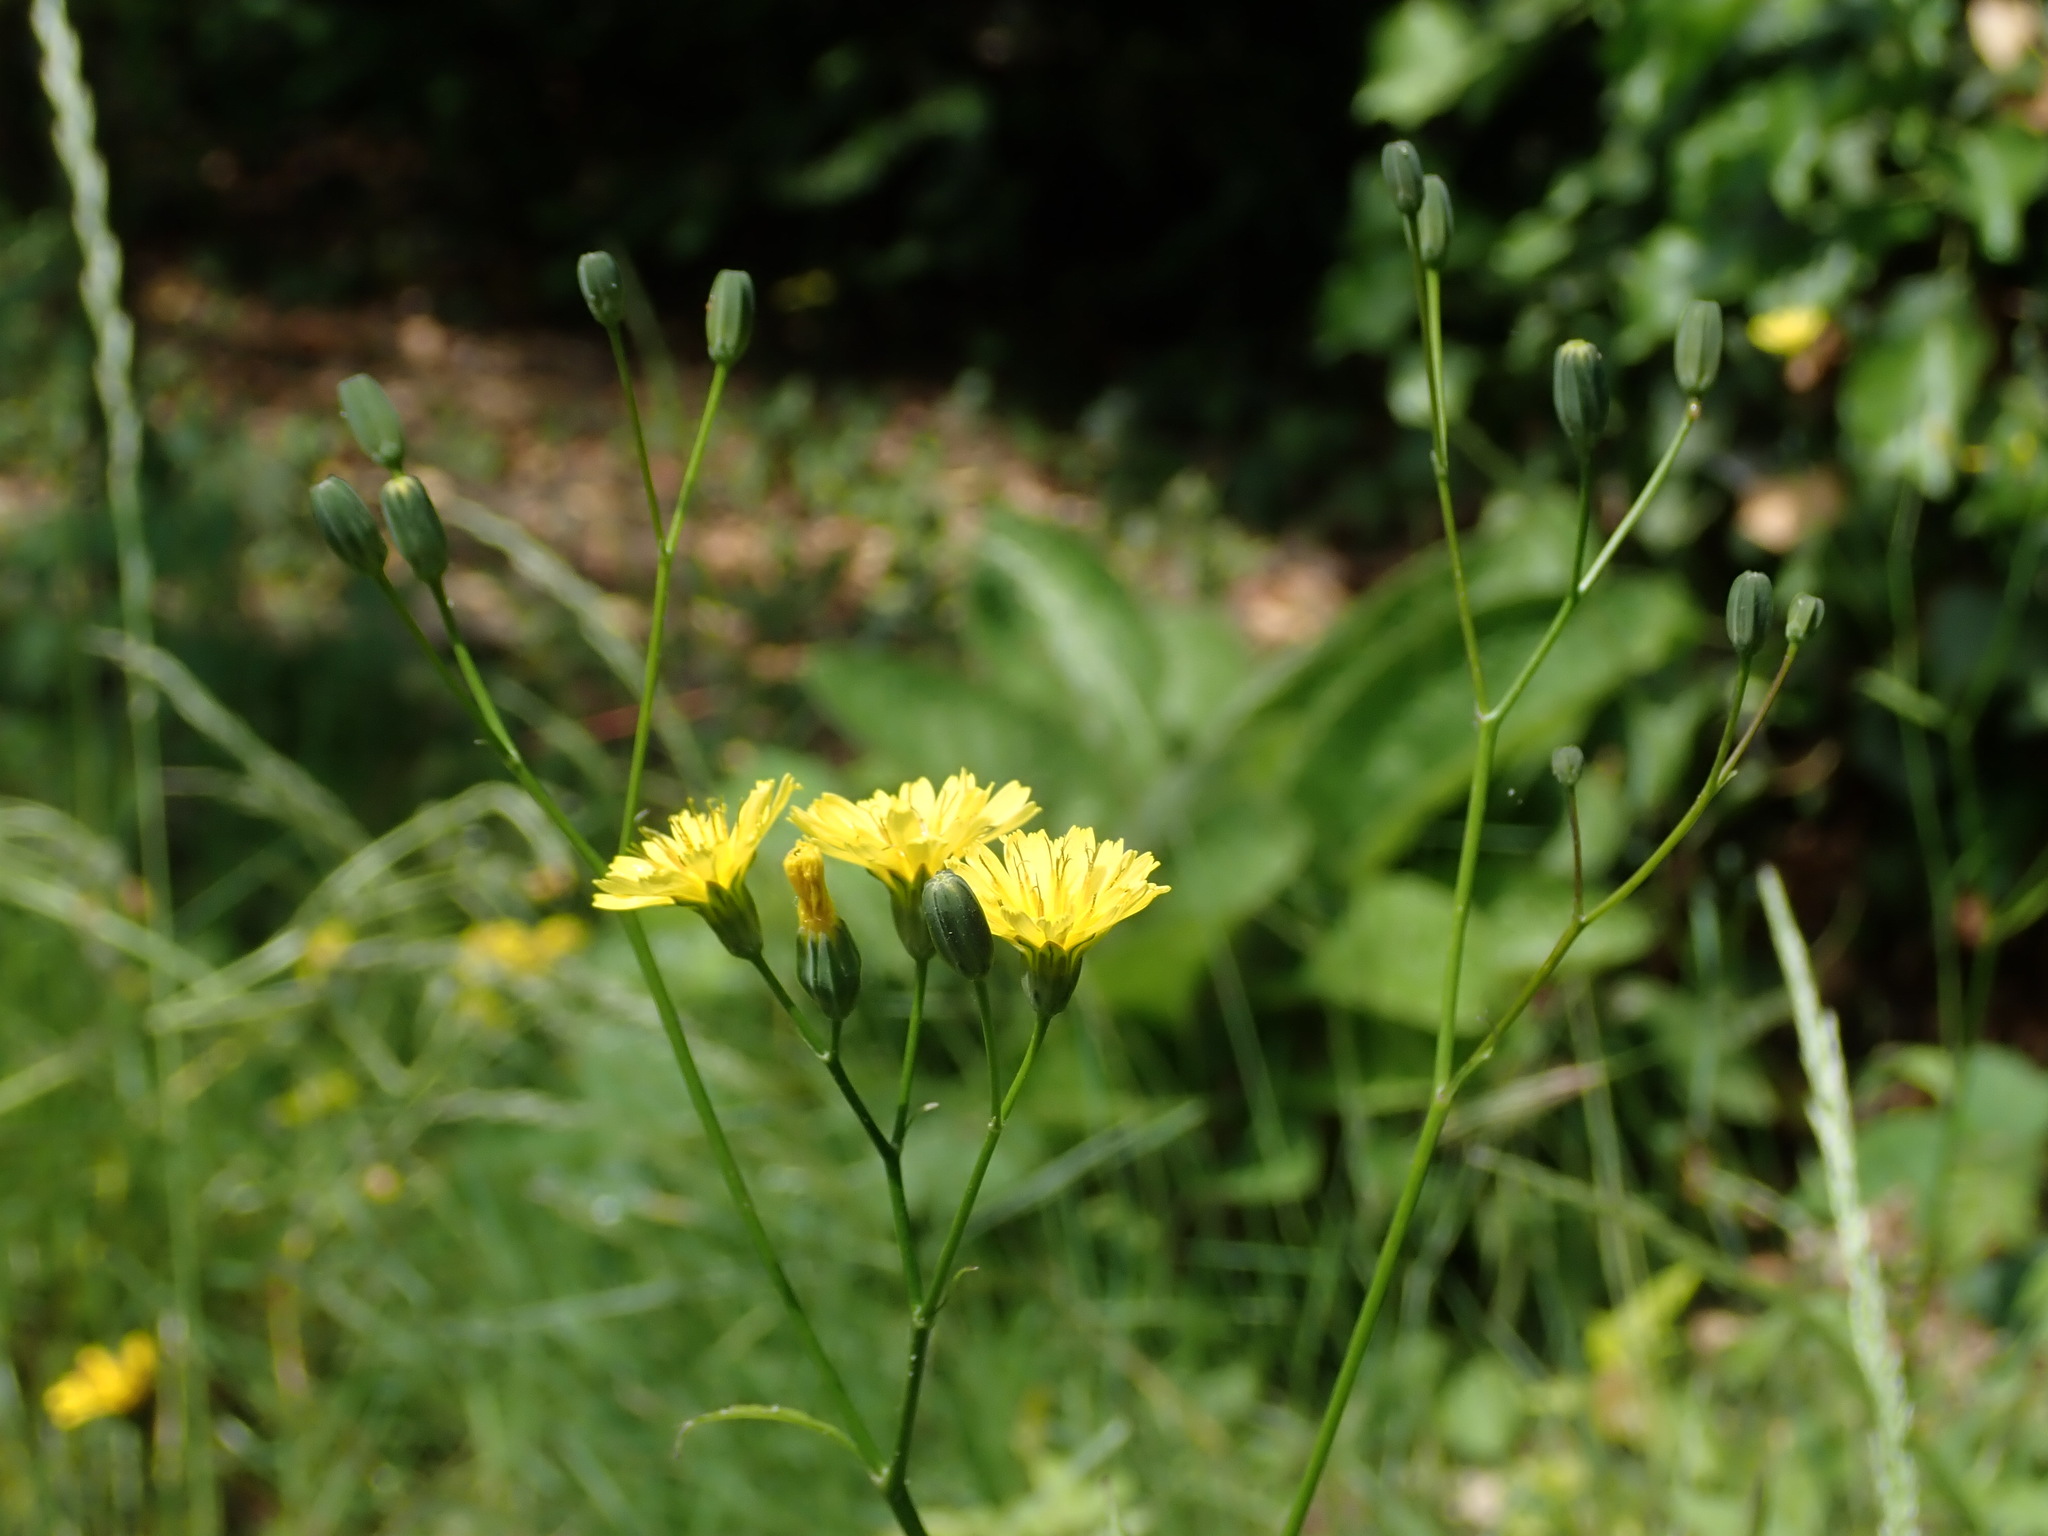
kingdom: Plantae
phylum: Tracheophyta
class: Magnoliopsida
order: Asterales
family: Asteraceae
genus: Lapsana
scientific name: Lapsana communis
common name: Nipplewort
